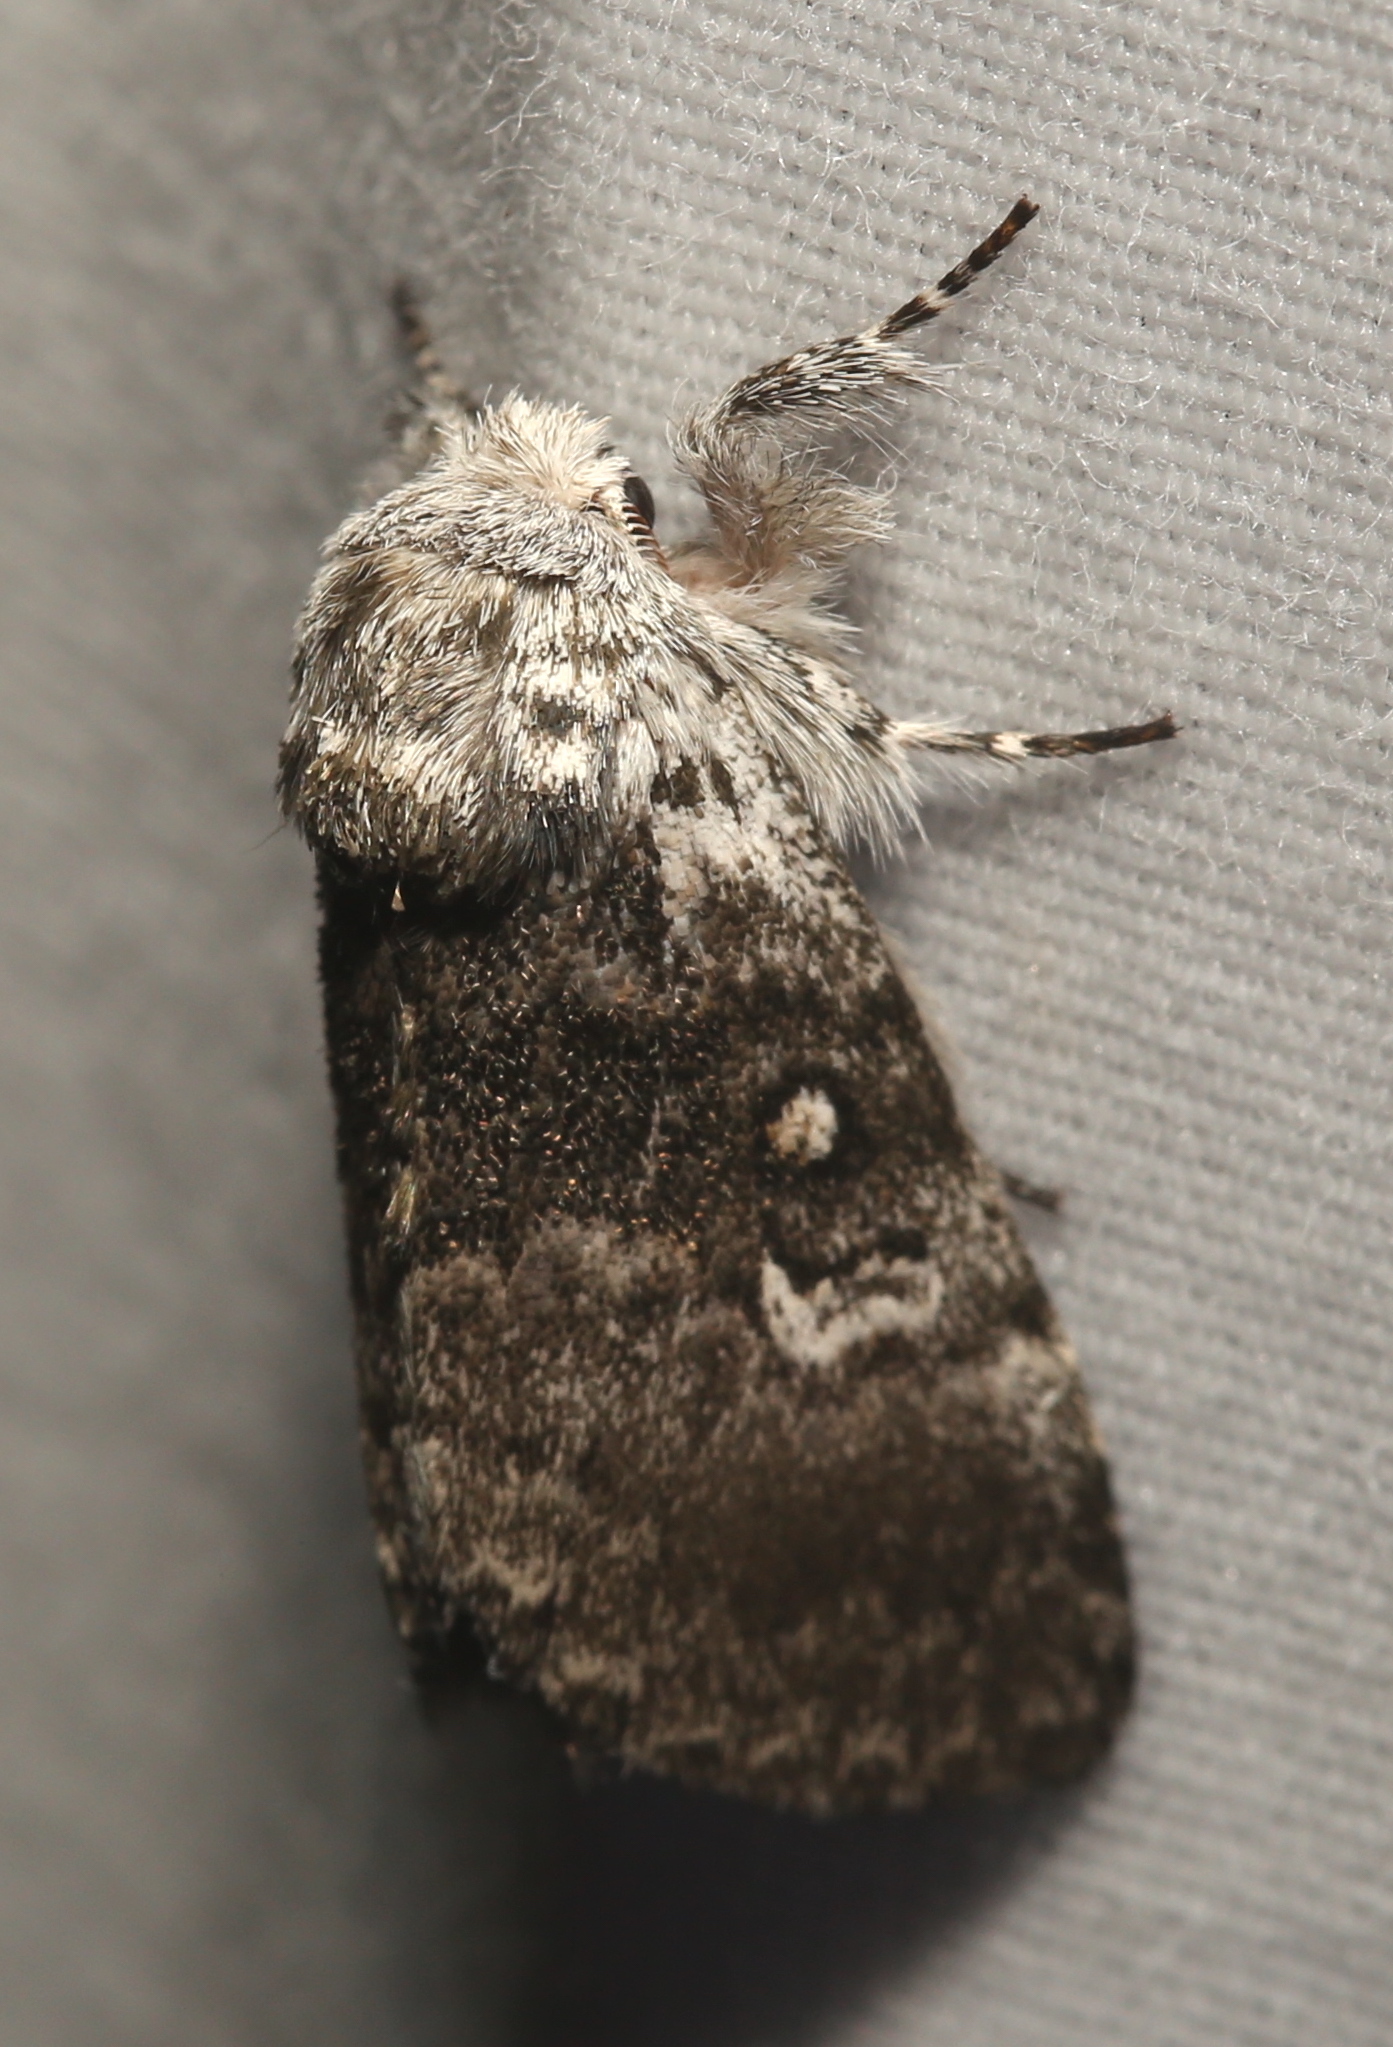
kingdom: Animalia
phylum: Arthropoda
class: Insecta
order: Lepidoptera
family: Noctuidae
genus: Colocasia
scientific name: Colocasia propinquilinea
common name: Close-banded demas
